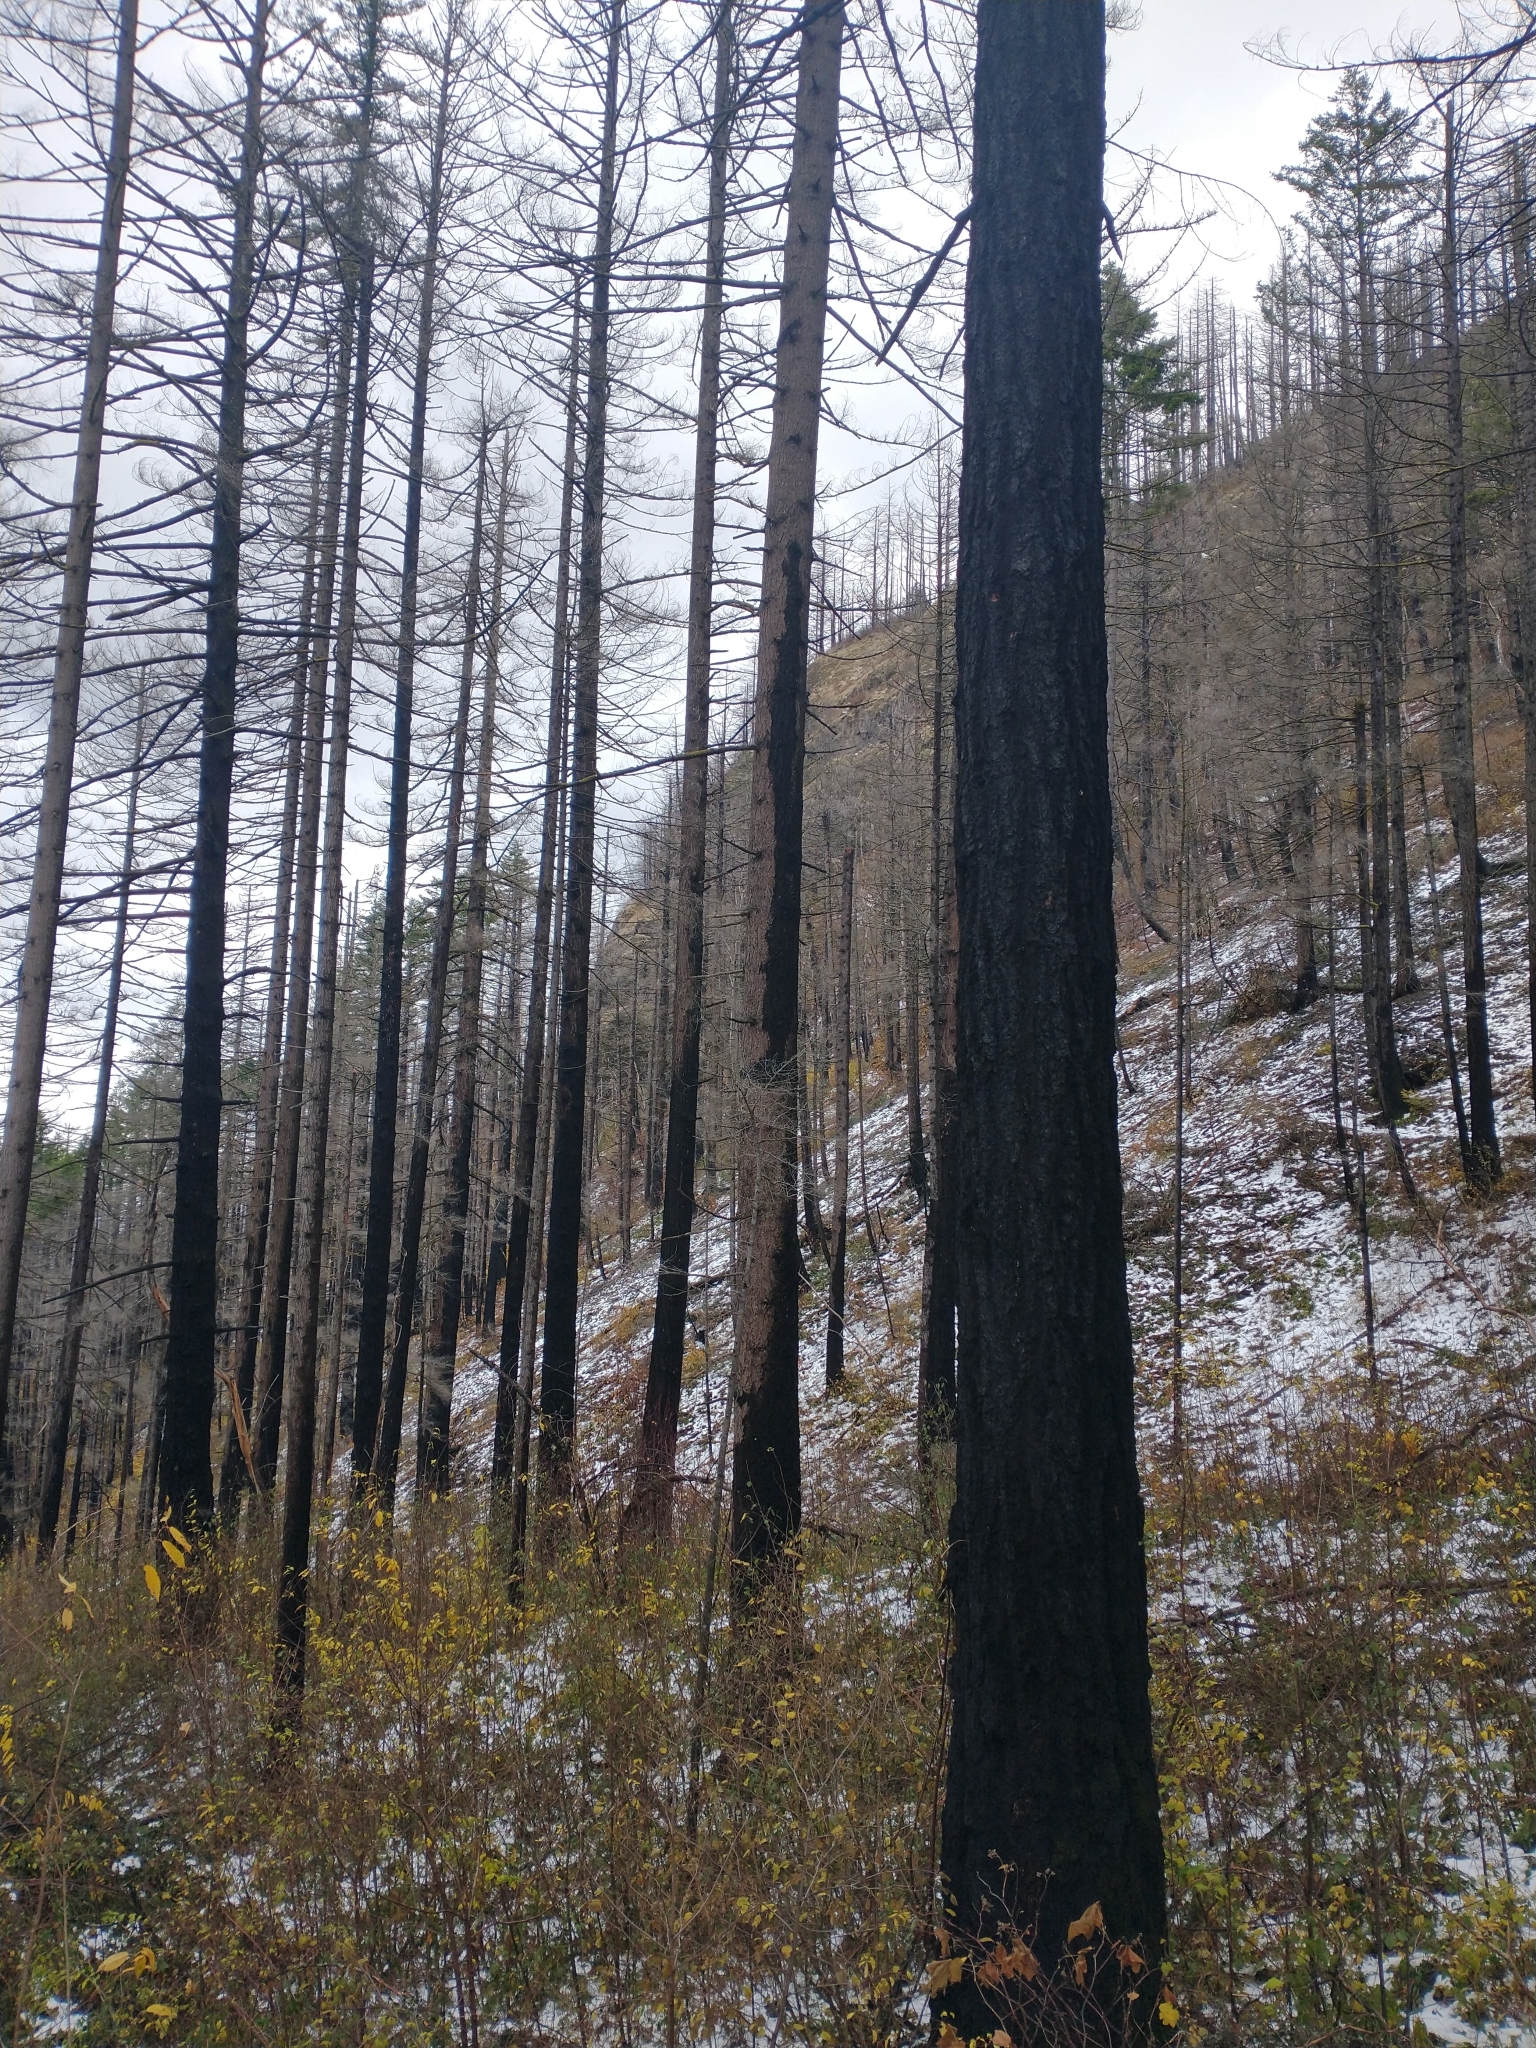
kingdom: Plantae
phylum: Tracheophyta
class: Pinopsida
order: Pinales
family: Pinaceae
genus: Pseudotsuga
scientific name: Pseudotsuga menziesii
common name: Douglas fir
